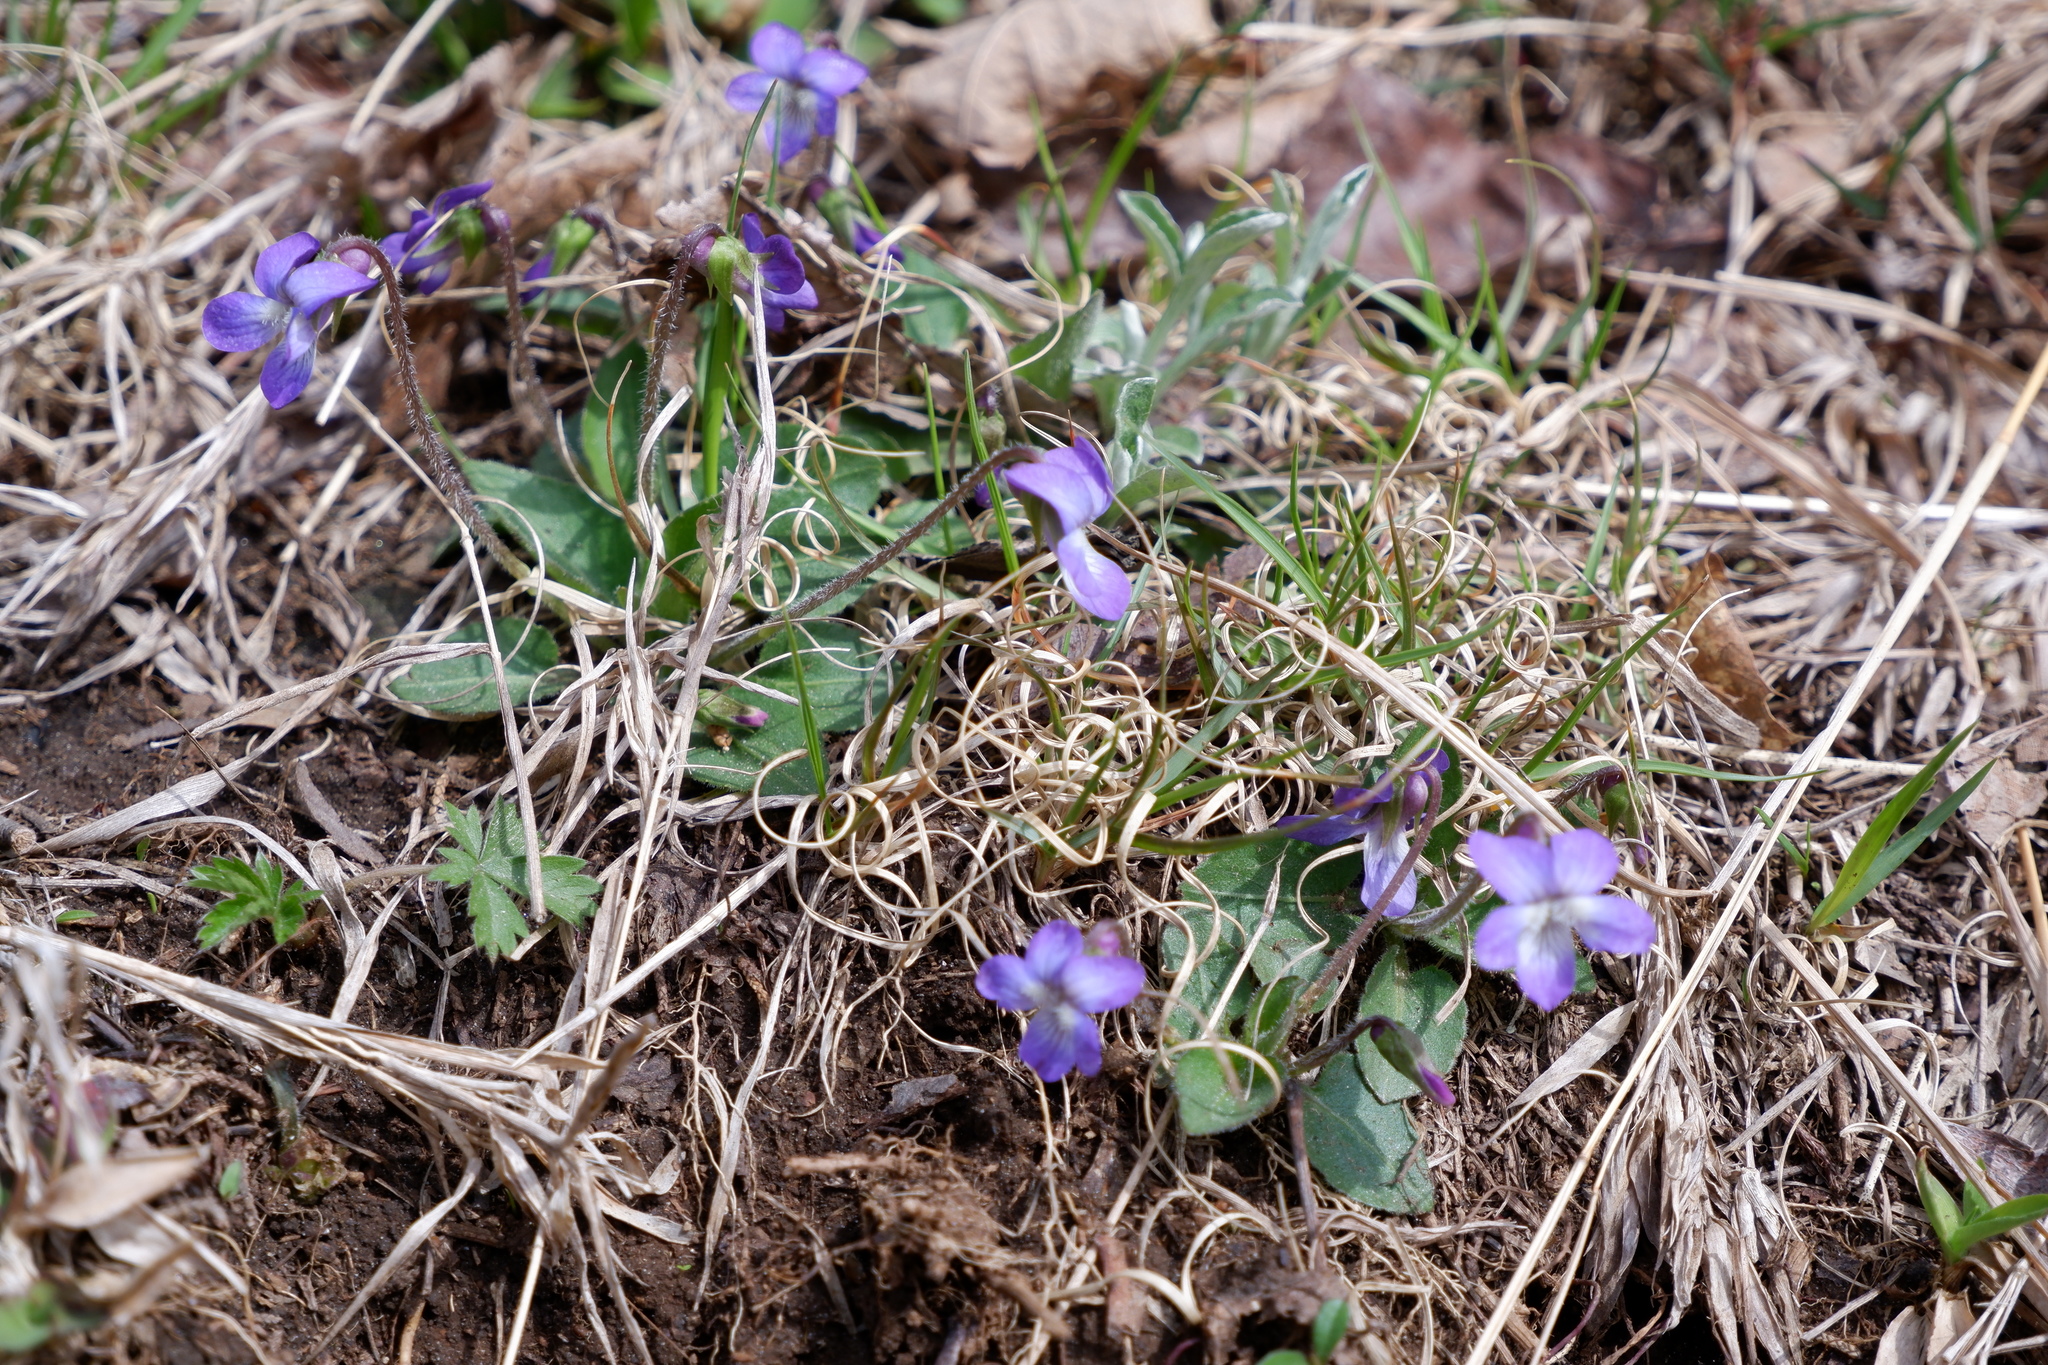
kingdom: Plantae
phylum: Tracheophyta
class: Magnoliopsida
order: Malpighiales
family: Violaceae
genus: Viola
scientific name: Viola fimbriatula
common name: Sand violet
